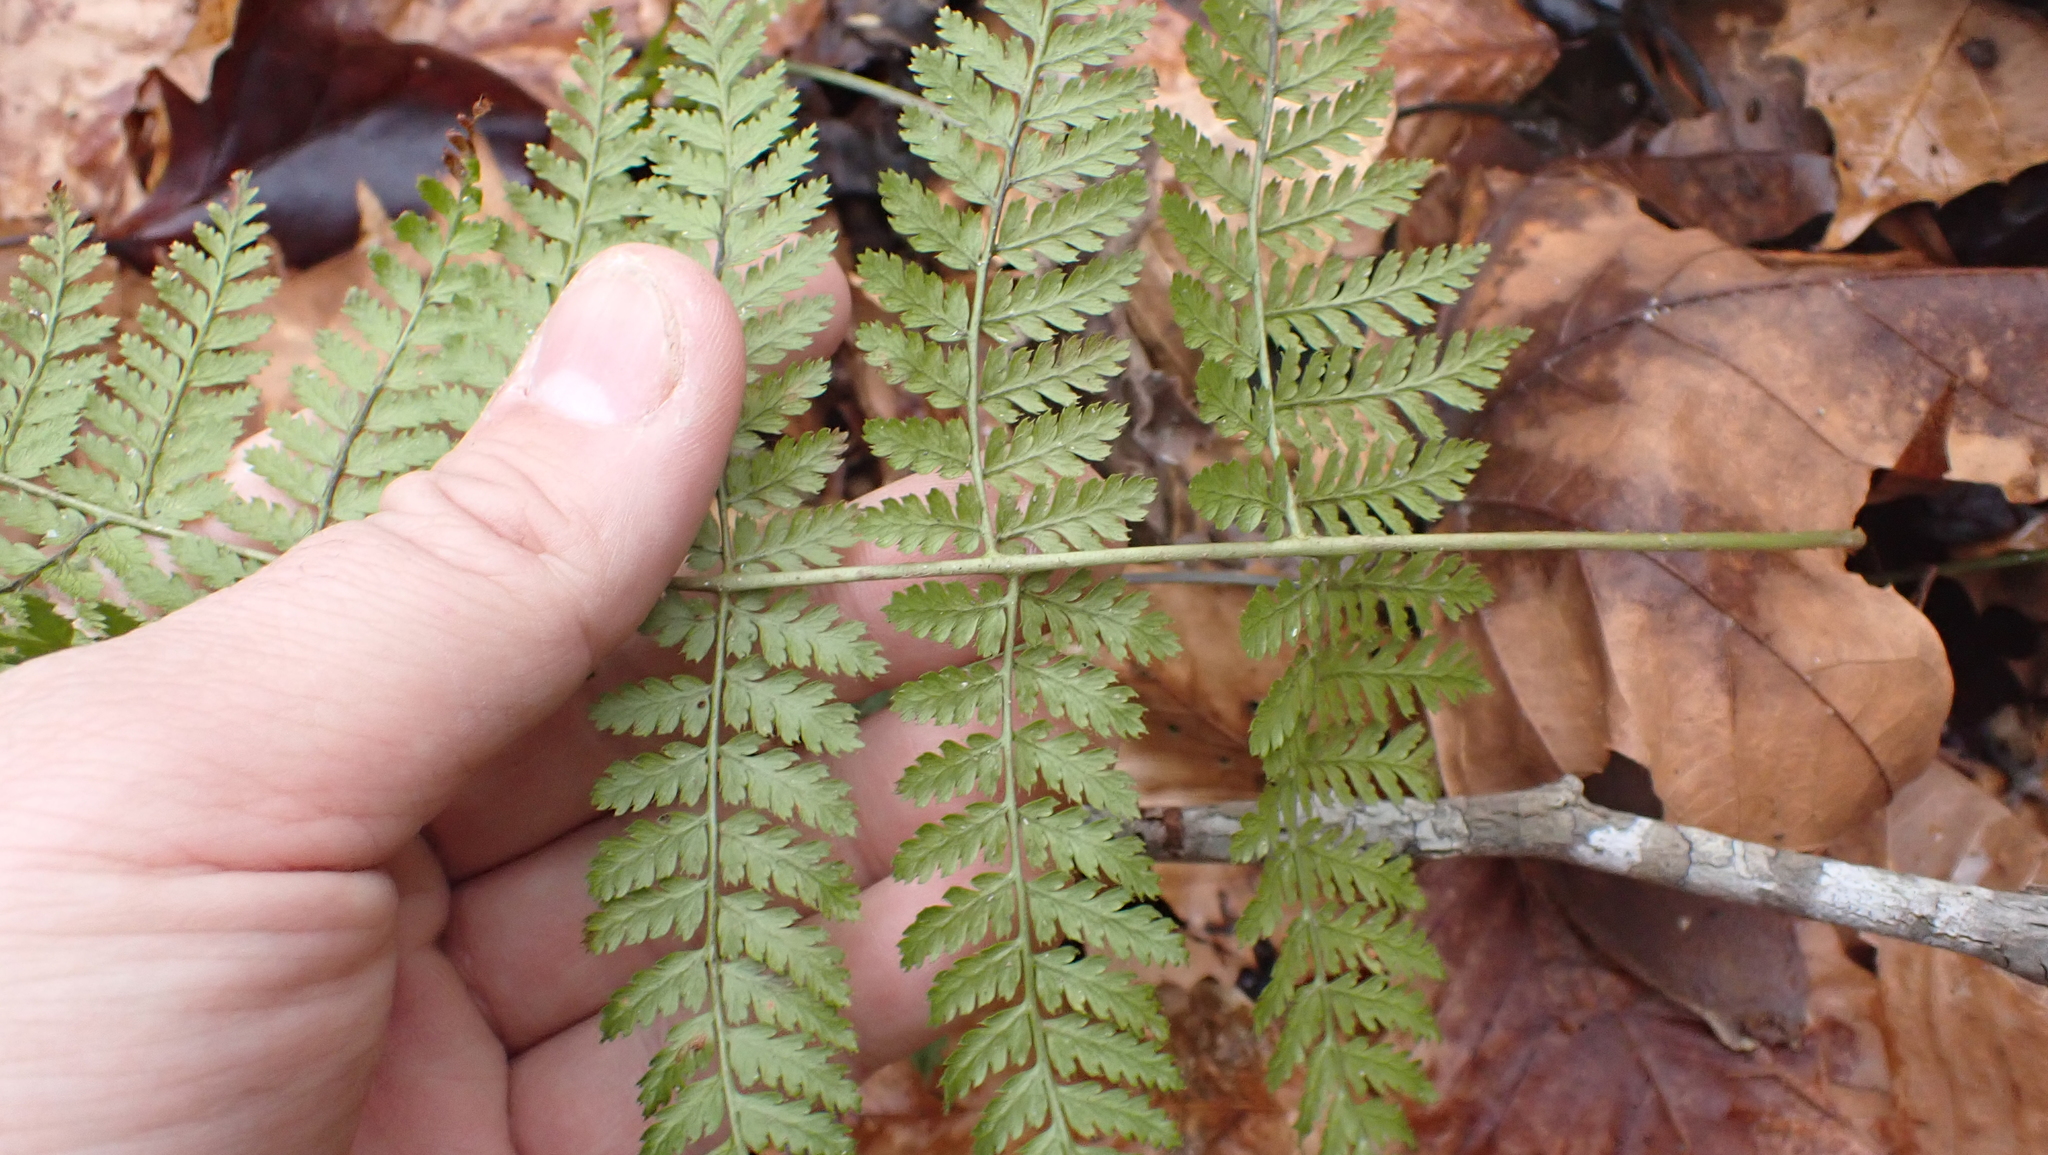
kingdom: Plantae
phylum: Tracheophyta
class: Polypodiopsida
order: Polypodiales
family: Dryopteridaceae
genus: Dryopteris
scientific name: Dryopteris intermedia
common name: Evergreen wood fern
